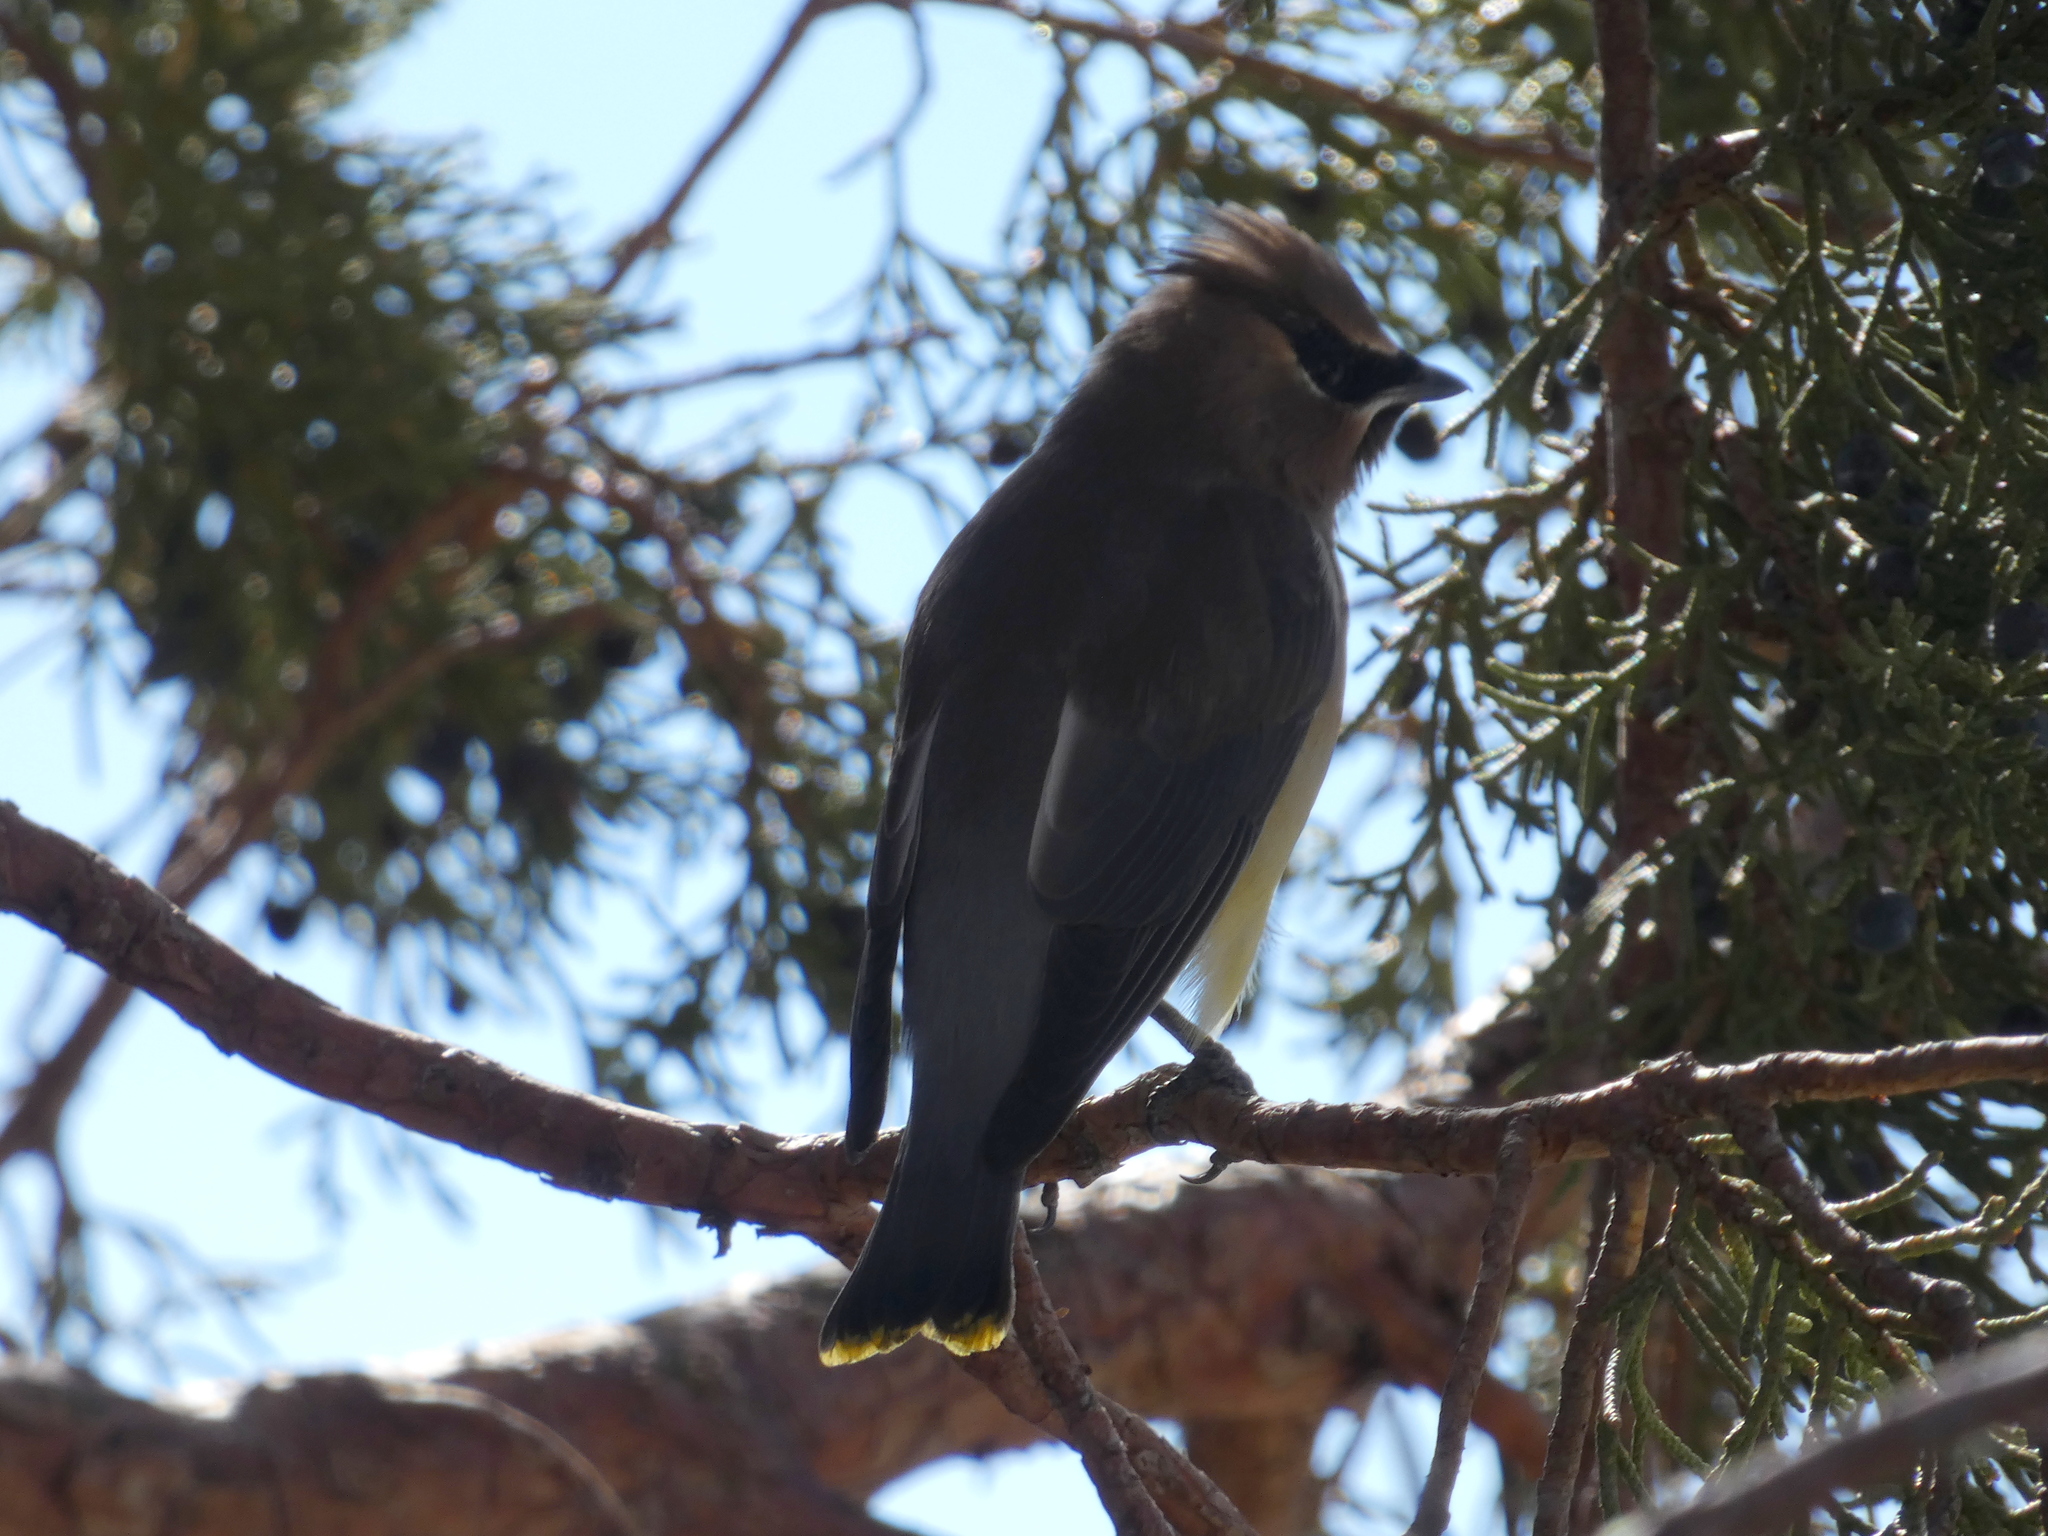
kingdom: Animalia
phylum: Chordata
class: Aves
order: Passeriformes
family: Bombycillidae
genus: Bombycilla
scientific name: Bombycilla cedrorum
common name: Cedar waxwing
